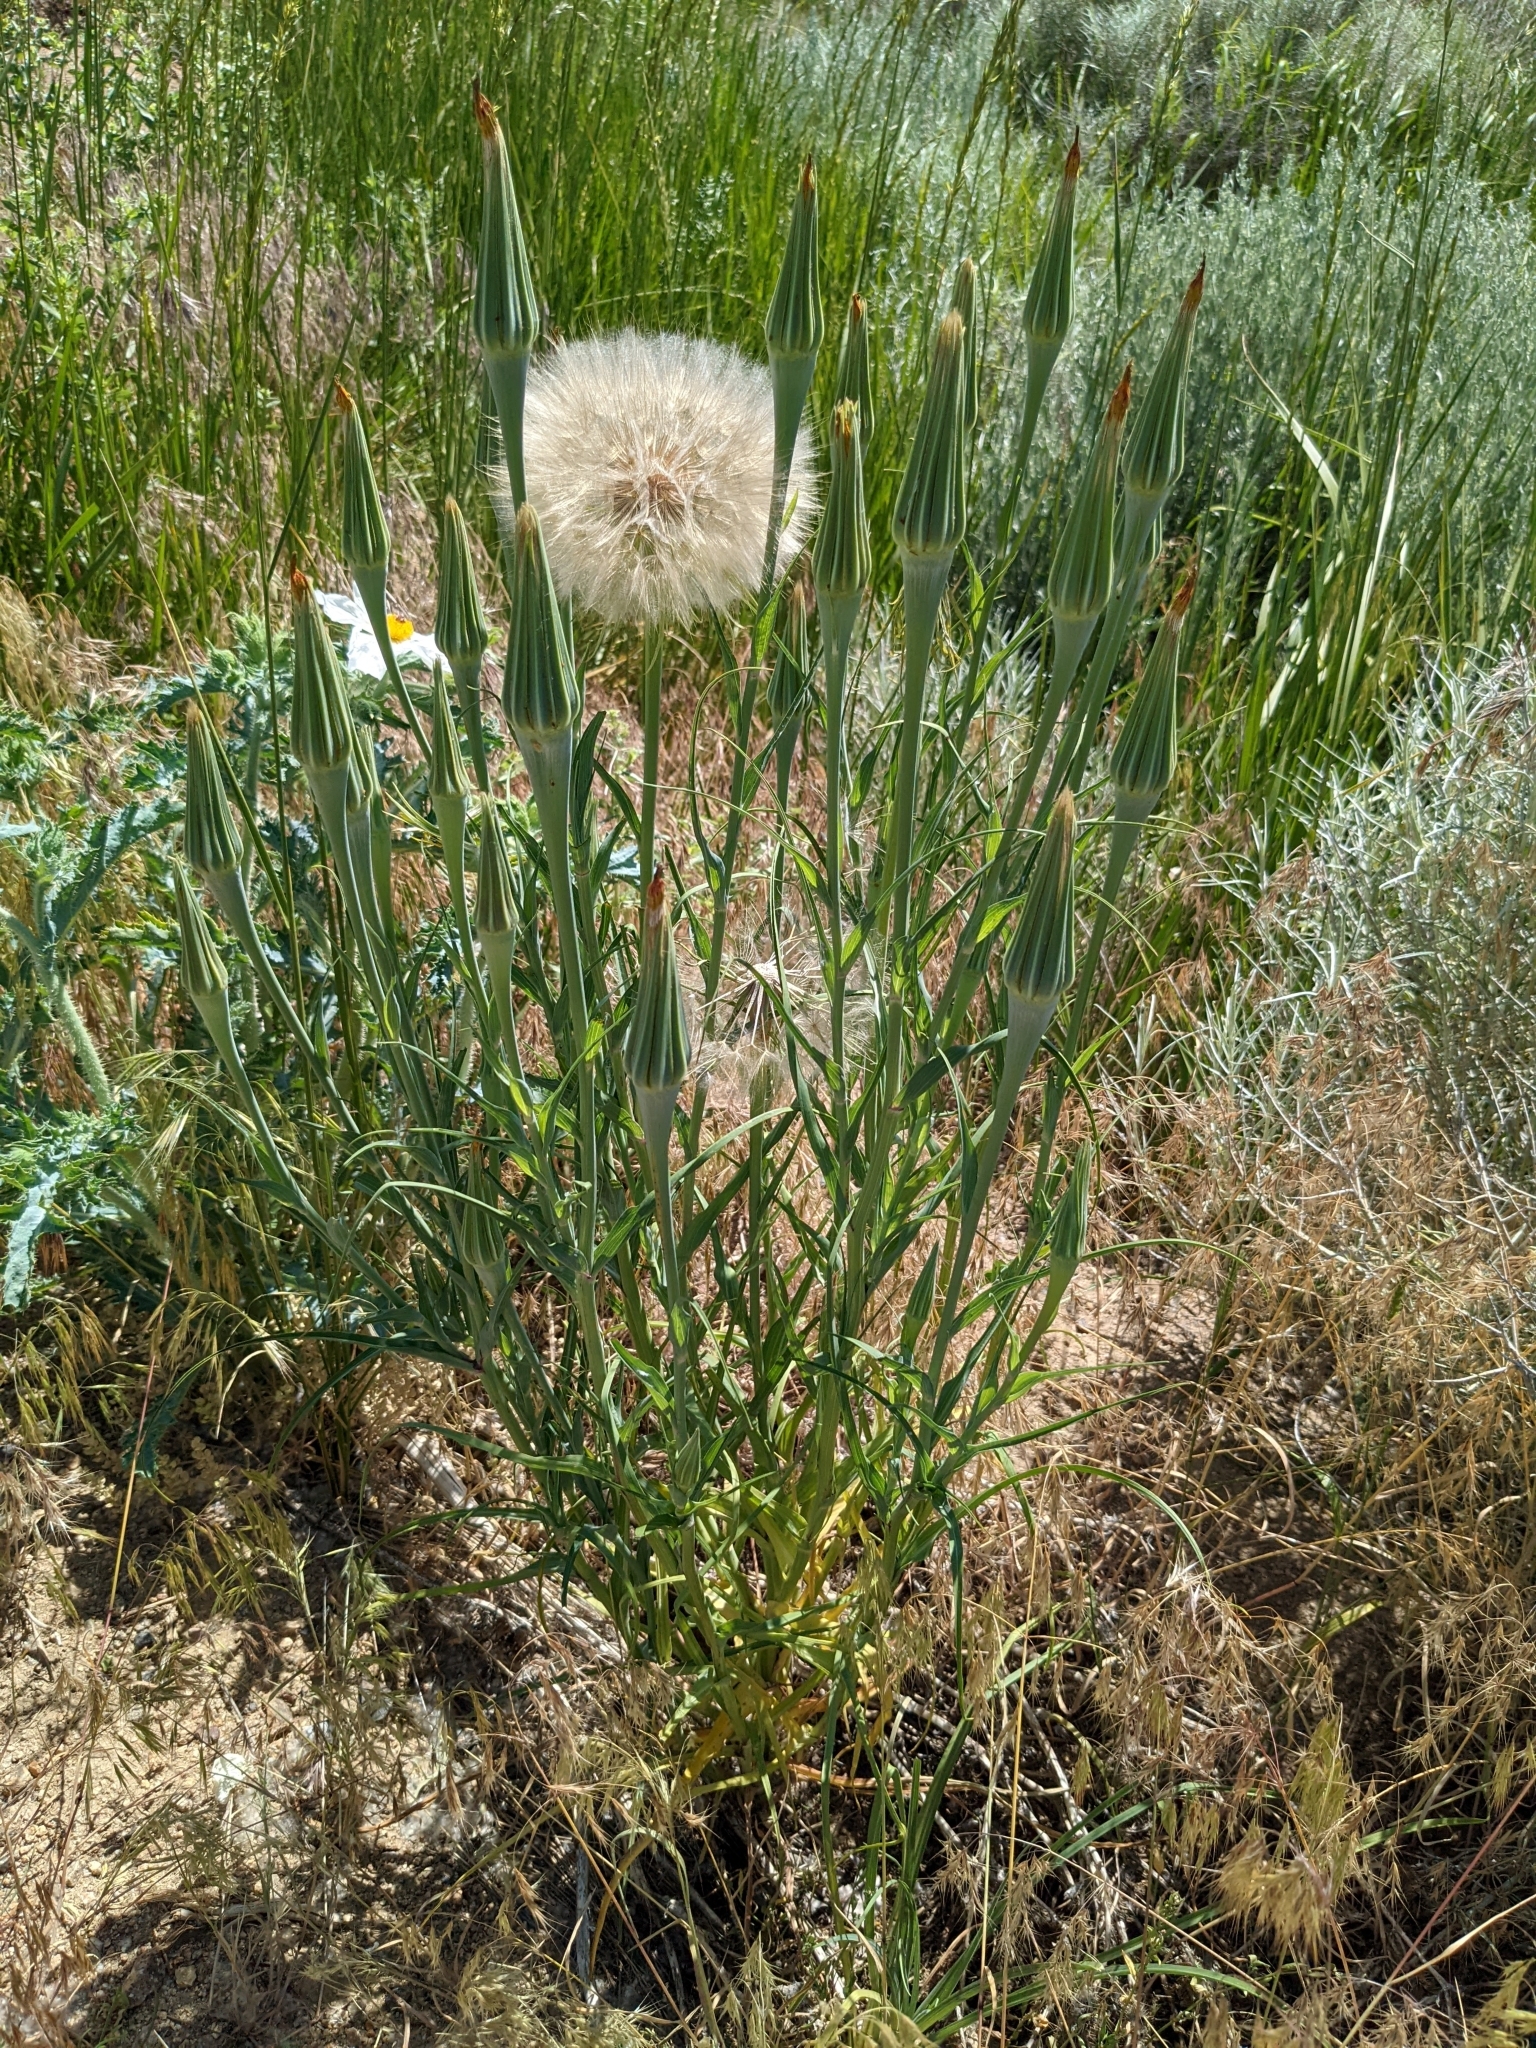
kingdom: Plantae
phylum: Tracheophyta
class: Magnoliopsida
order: Asterales
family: Asteraceae
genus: Tragopogon
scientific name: Tragopogon dubius
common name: Yellow salsify
